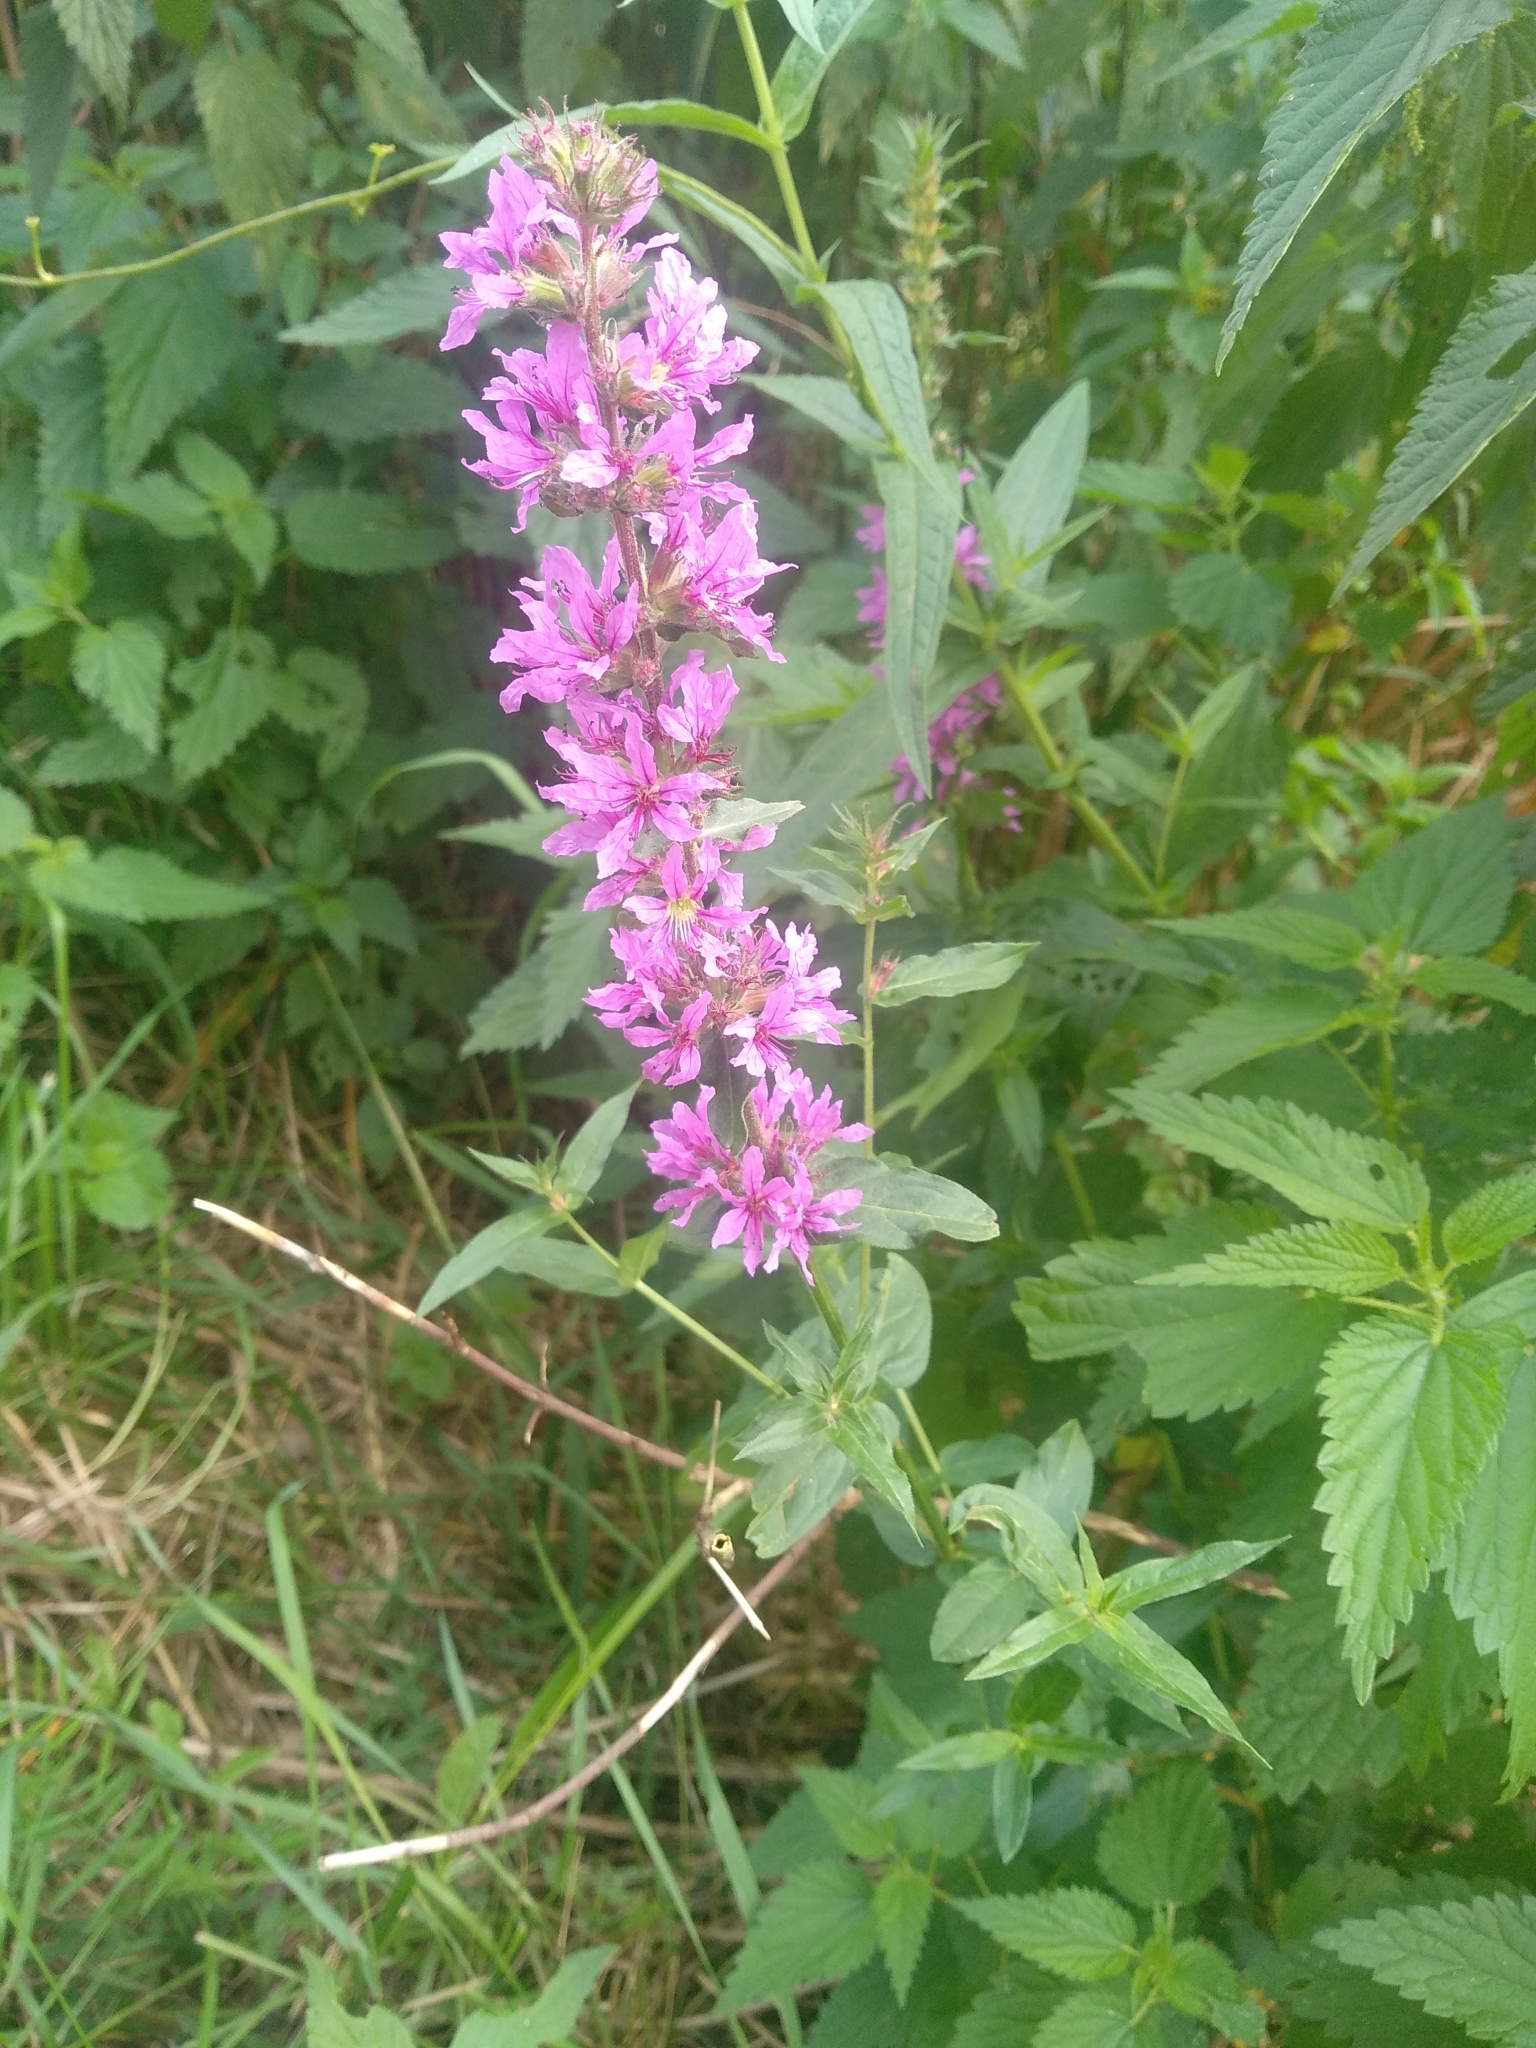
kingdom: Plantae
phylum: Tracheophyta
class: Magnoliopsida
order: Myrtales
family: Lythraceae
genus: Lythrum
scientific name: Lythrum salicaria
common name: Purple loosestrife
